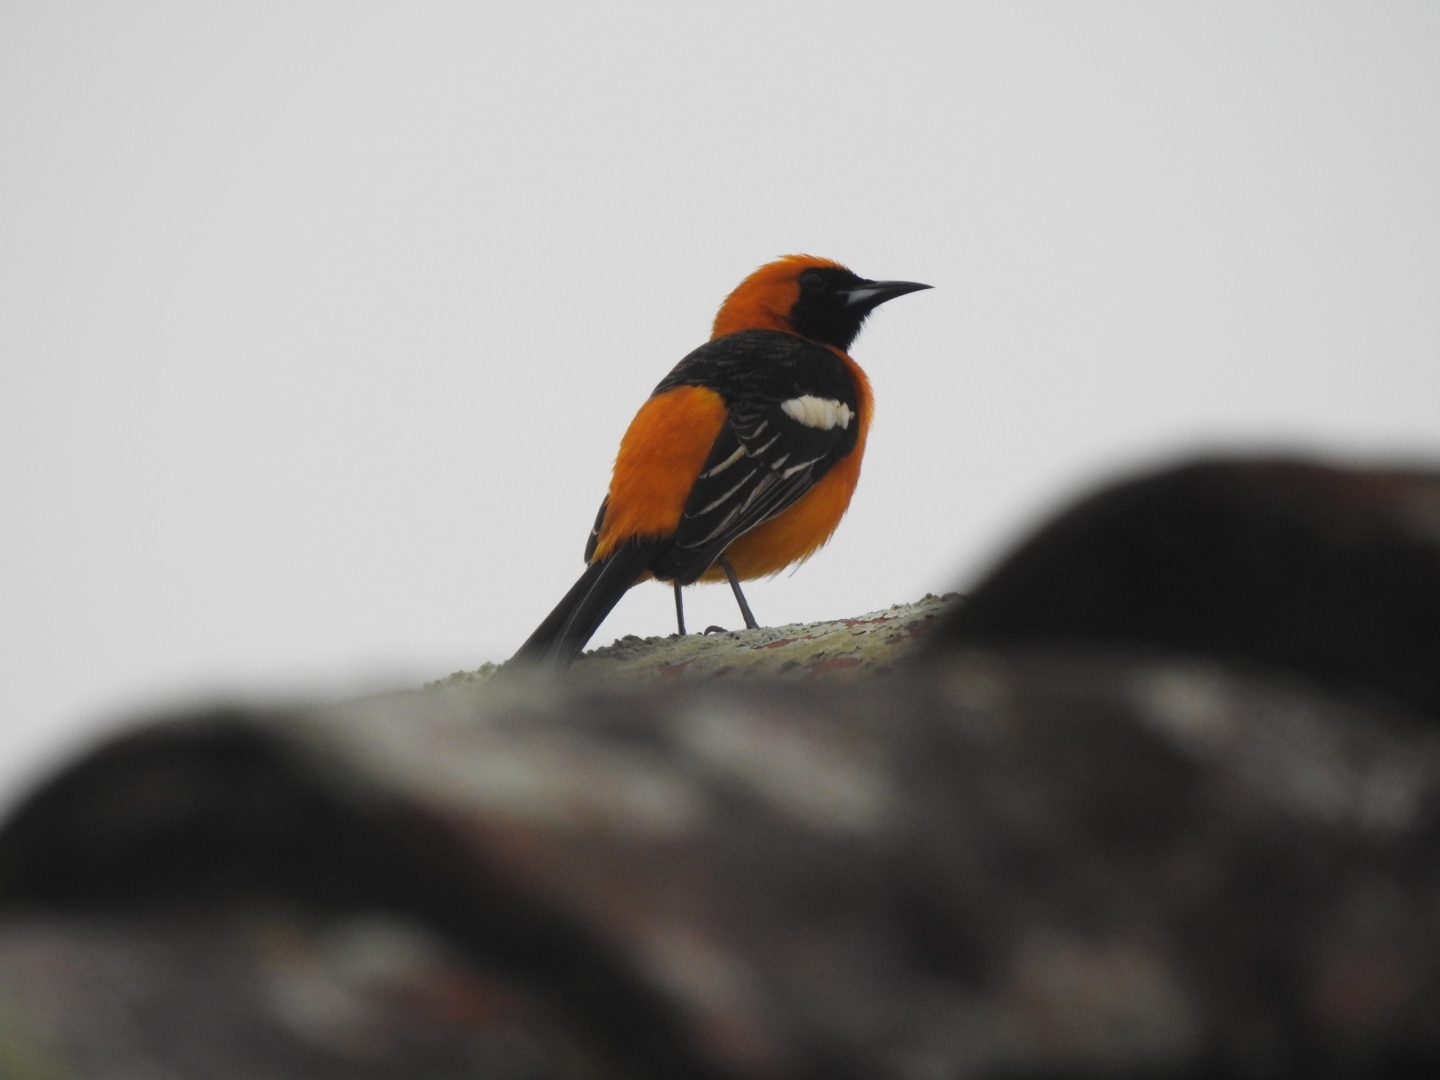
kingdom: Animalia
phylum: Chordata
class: Aves
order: Passeriformes
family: Icteridae
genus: Icterus
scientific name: Icterus cucullatus
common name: Hooded oriole
